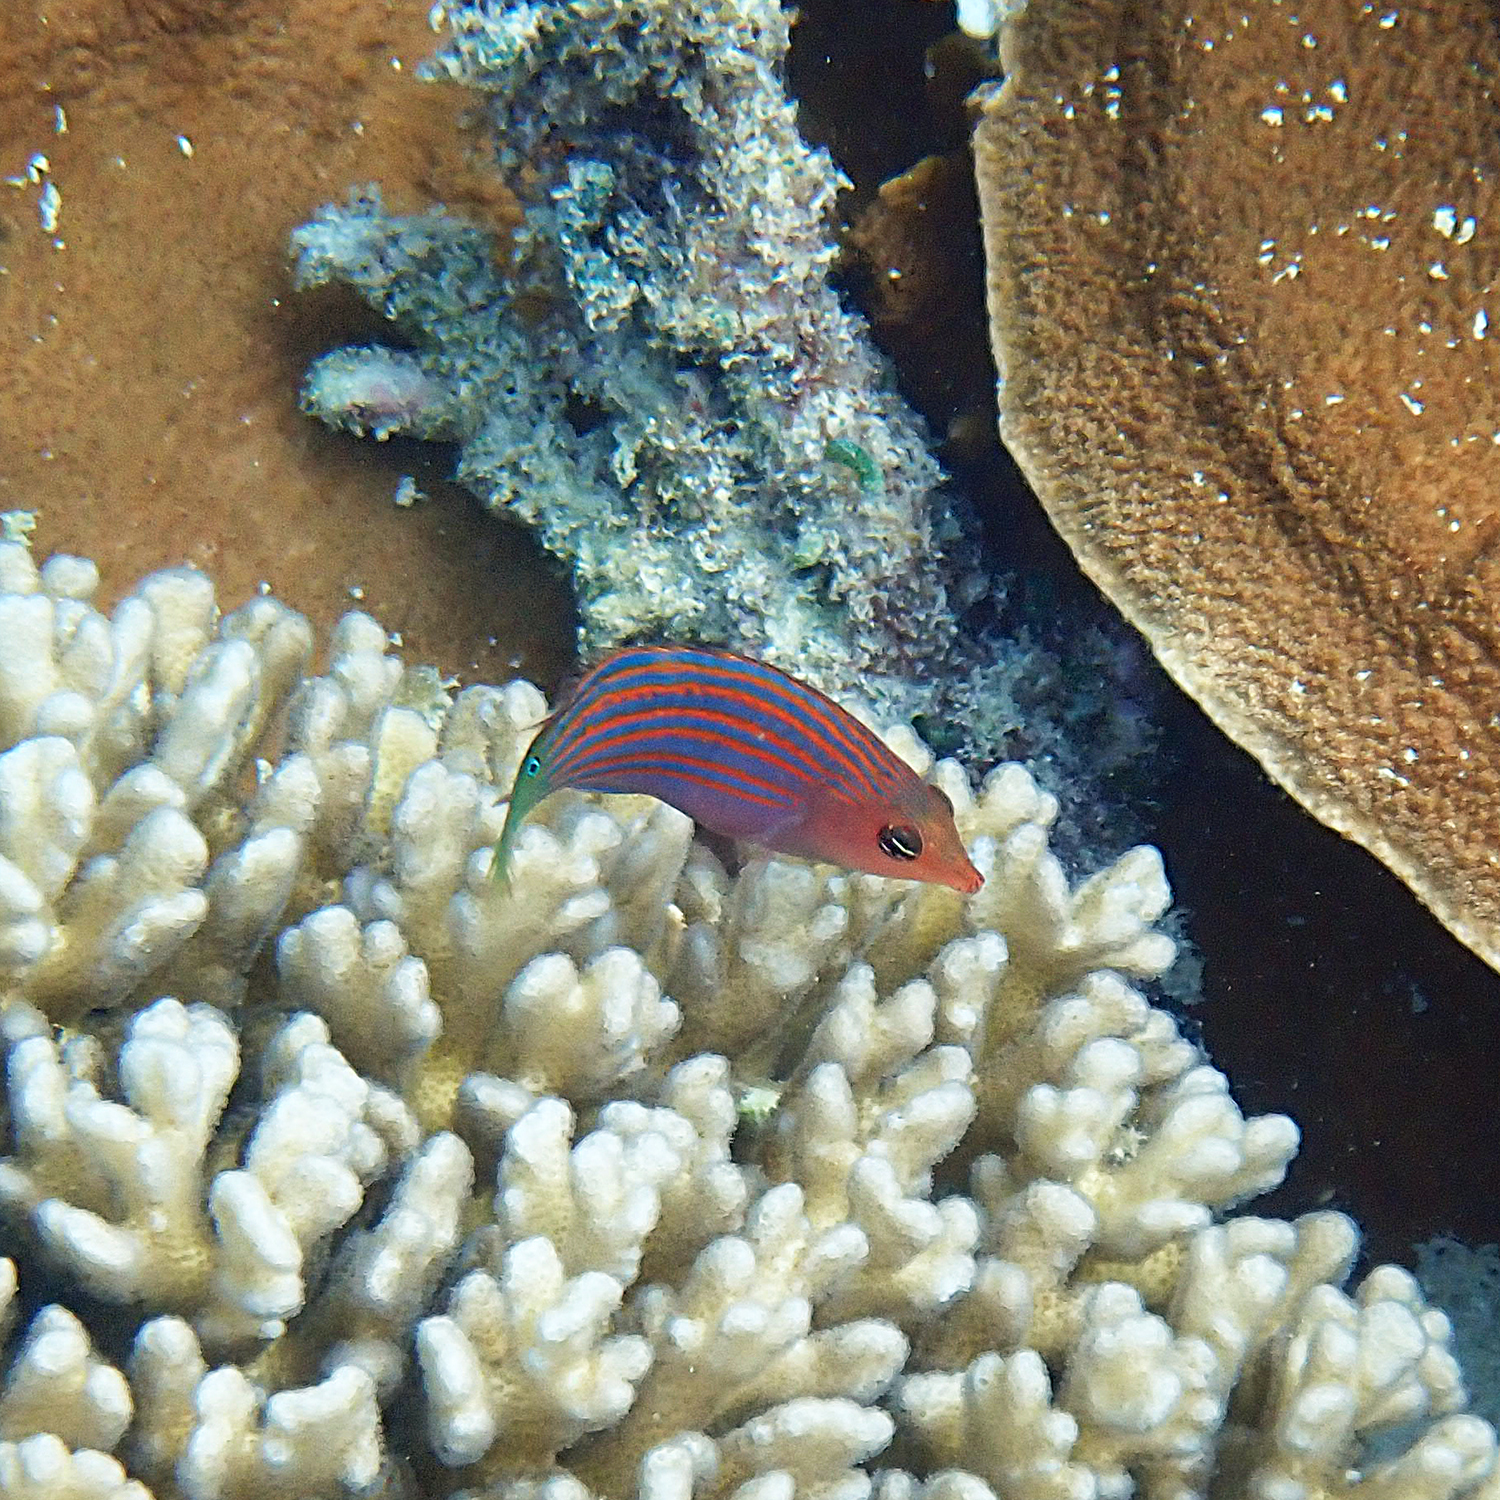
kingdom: Animalia
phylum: Chordata
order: Perciformes
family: Labridae
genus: Pseudocheilinus
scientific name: Pseudocheilinus hexataenia
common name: Sixline wrasse
